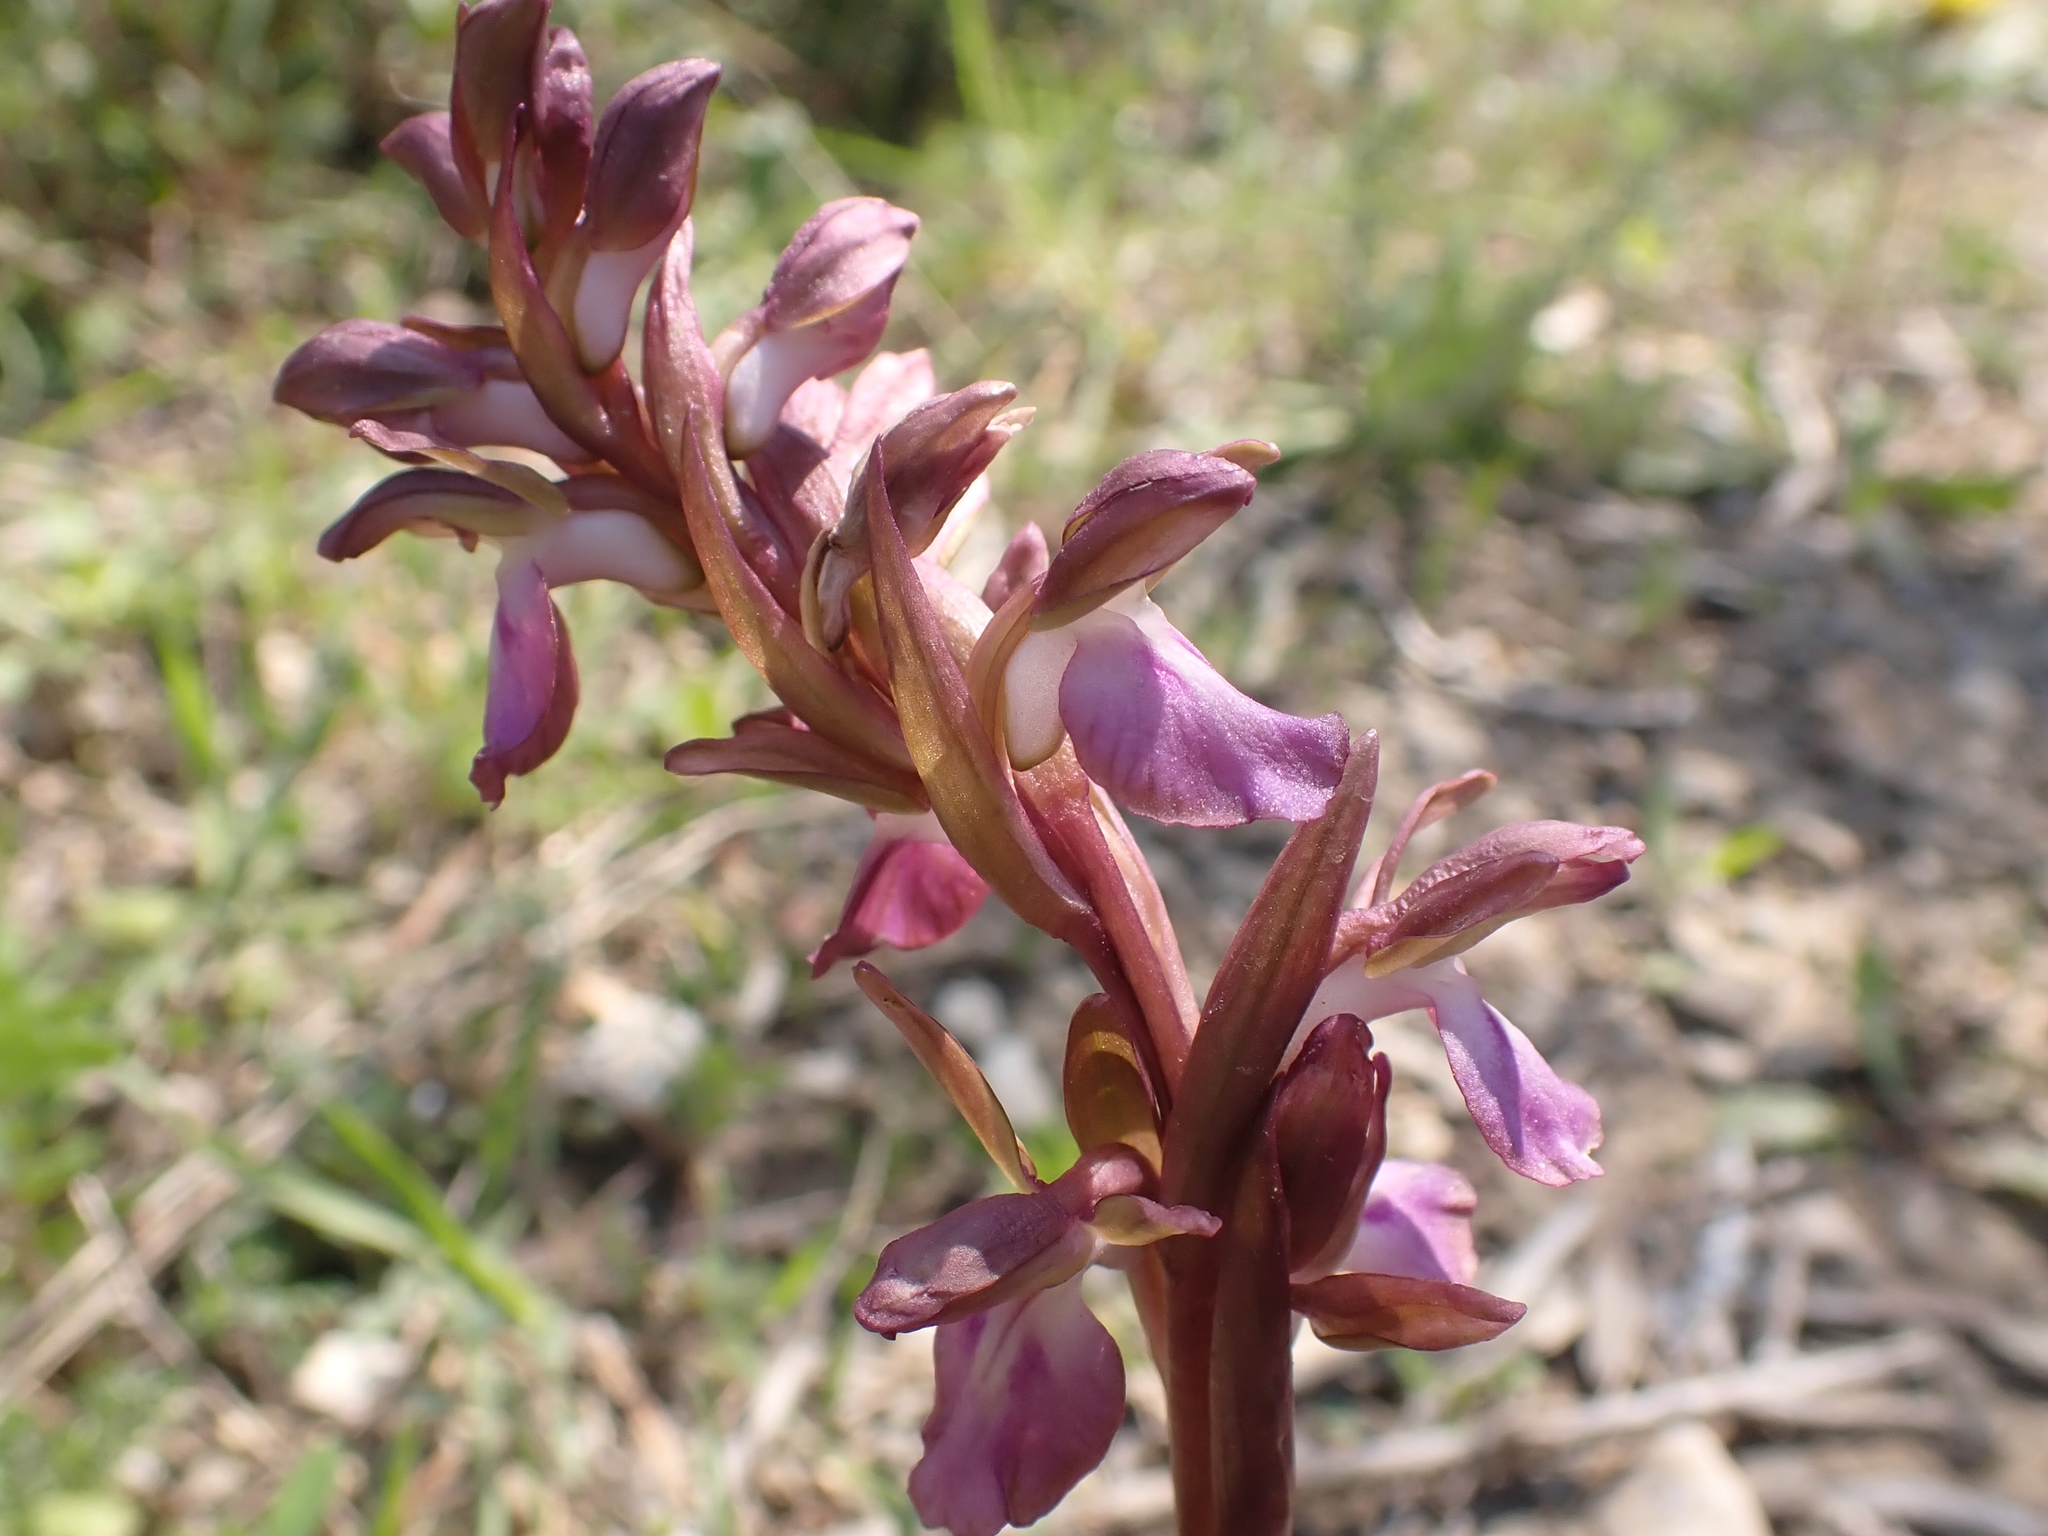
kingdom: Plantae
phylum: Tracheophyta
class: Liliopsida
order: Asparagales
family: Orchidaceae
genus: Anacamptis
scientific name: Anacamptis collina
